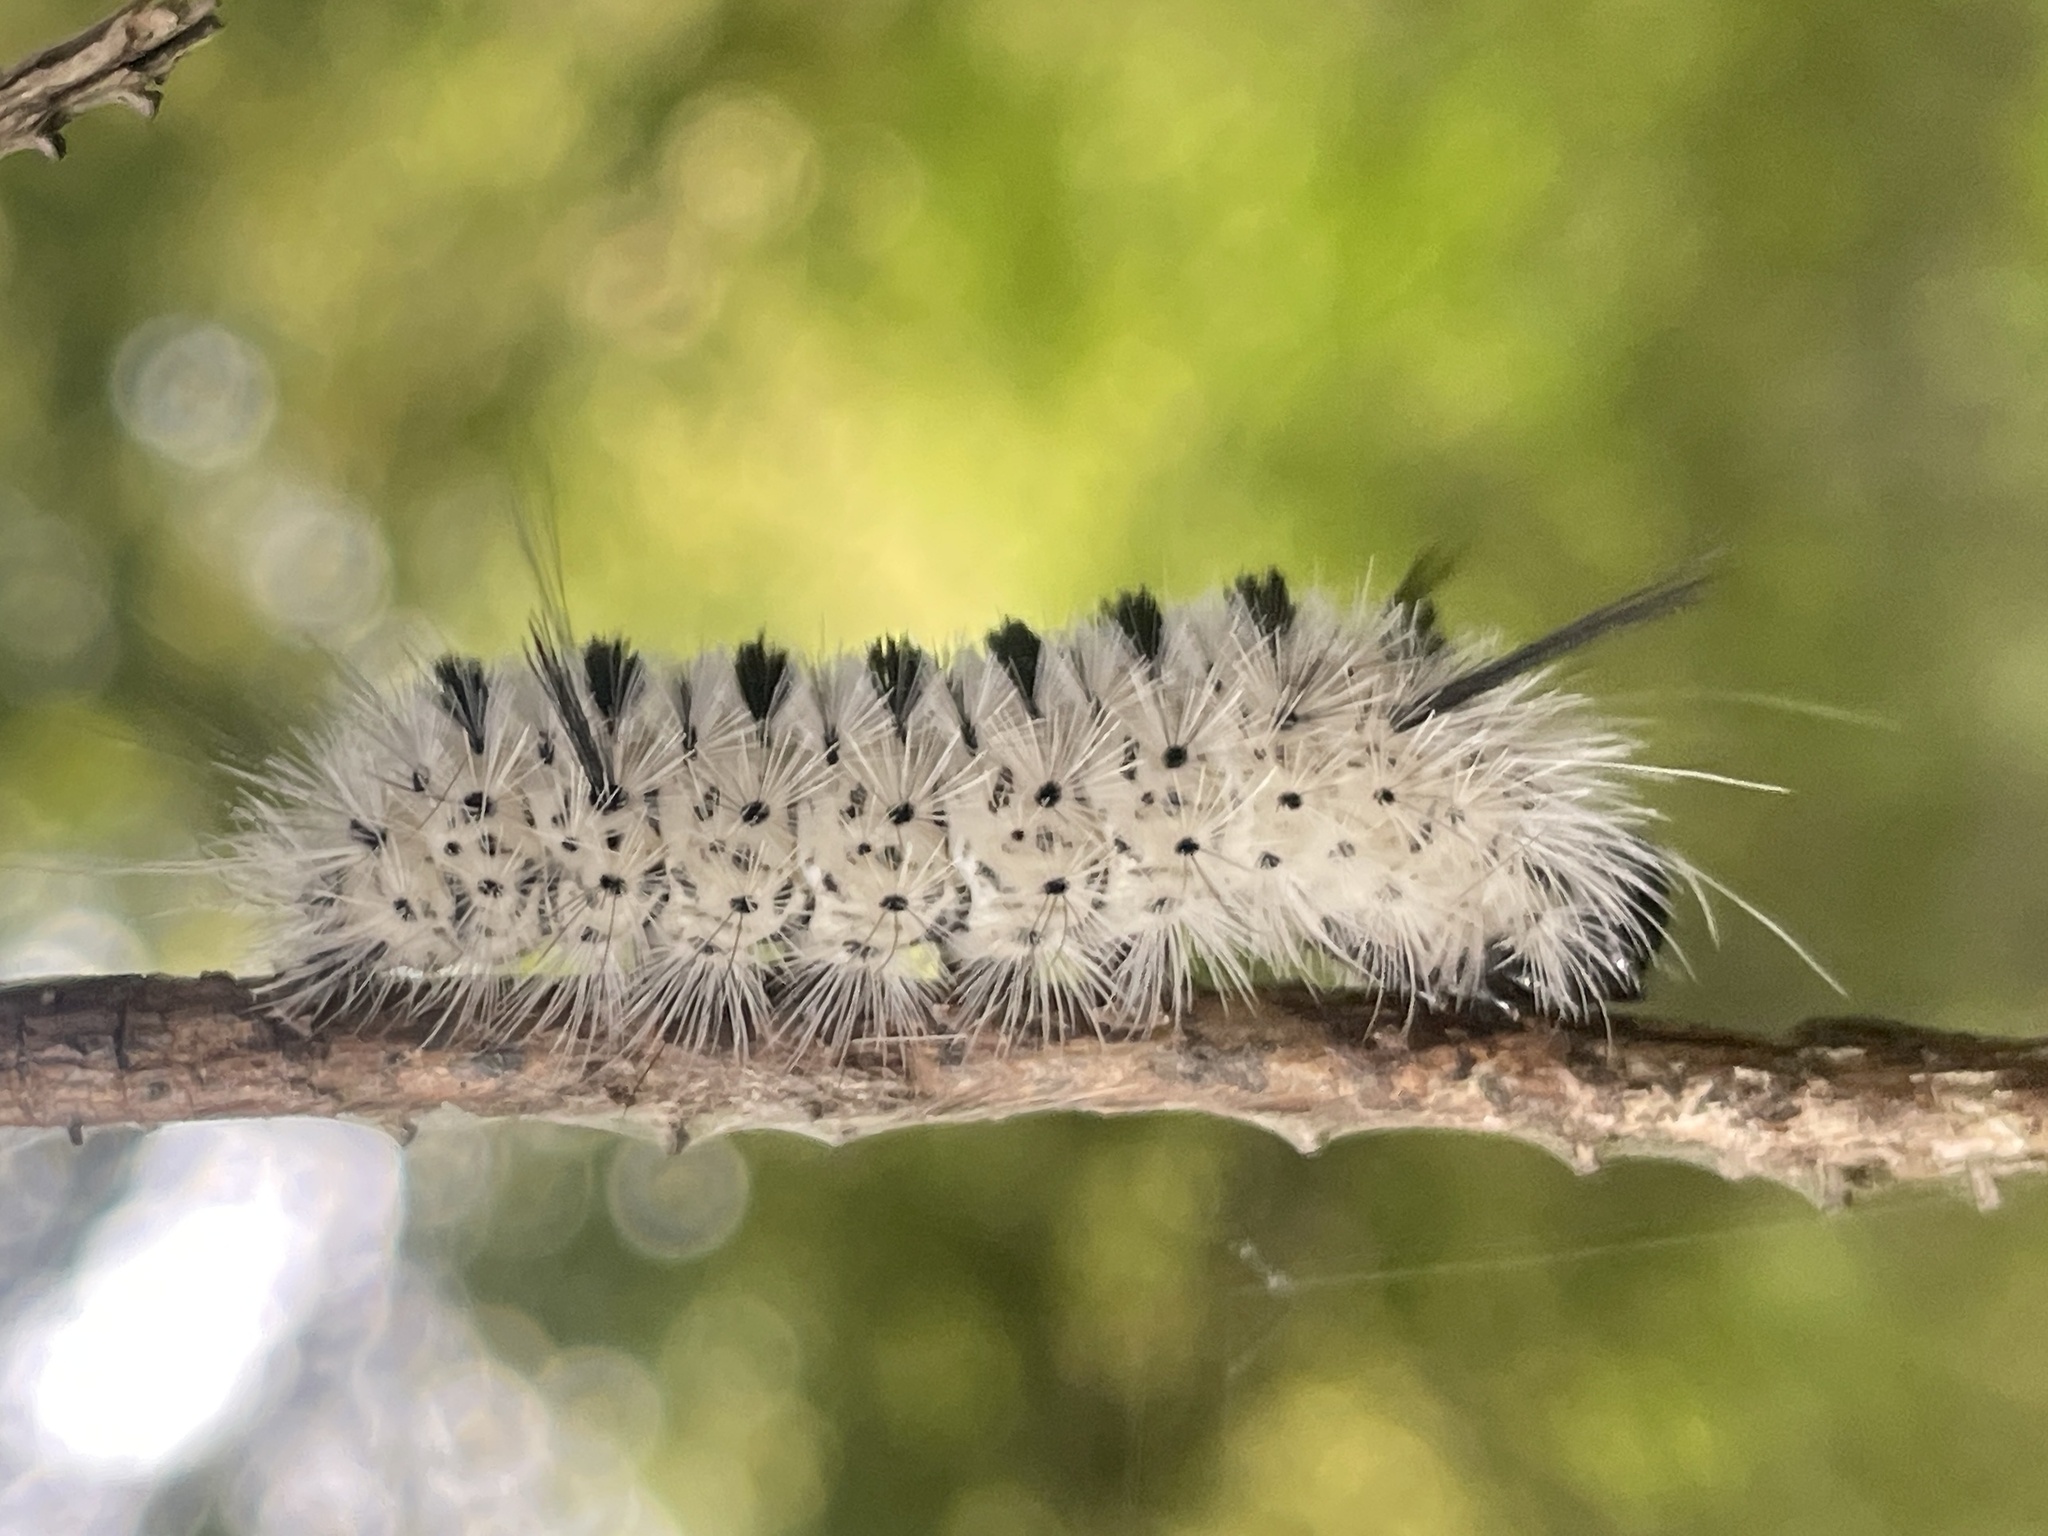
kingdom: Animalia
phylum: Arthropoda
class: Insecta
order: Lepidoptera
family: Erebidae
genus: Lophocampa
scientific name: Lophocampa caryae
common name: Hickory tussock moth
